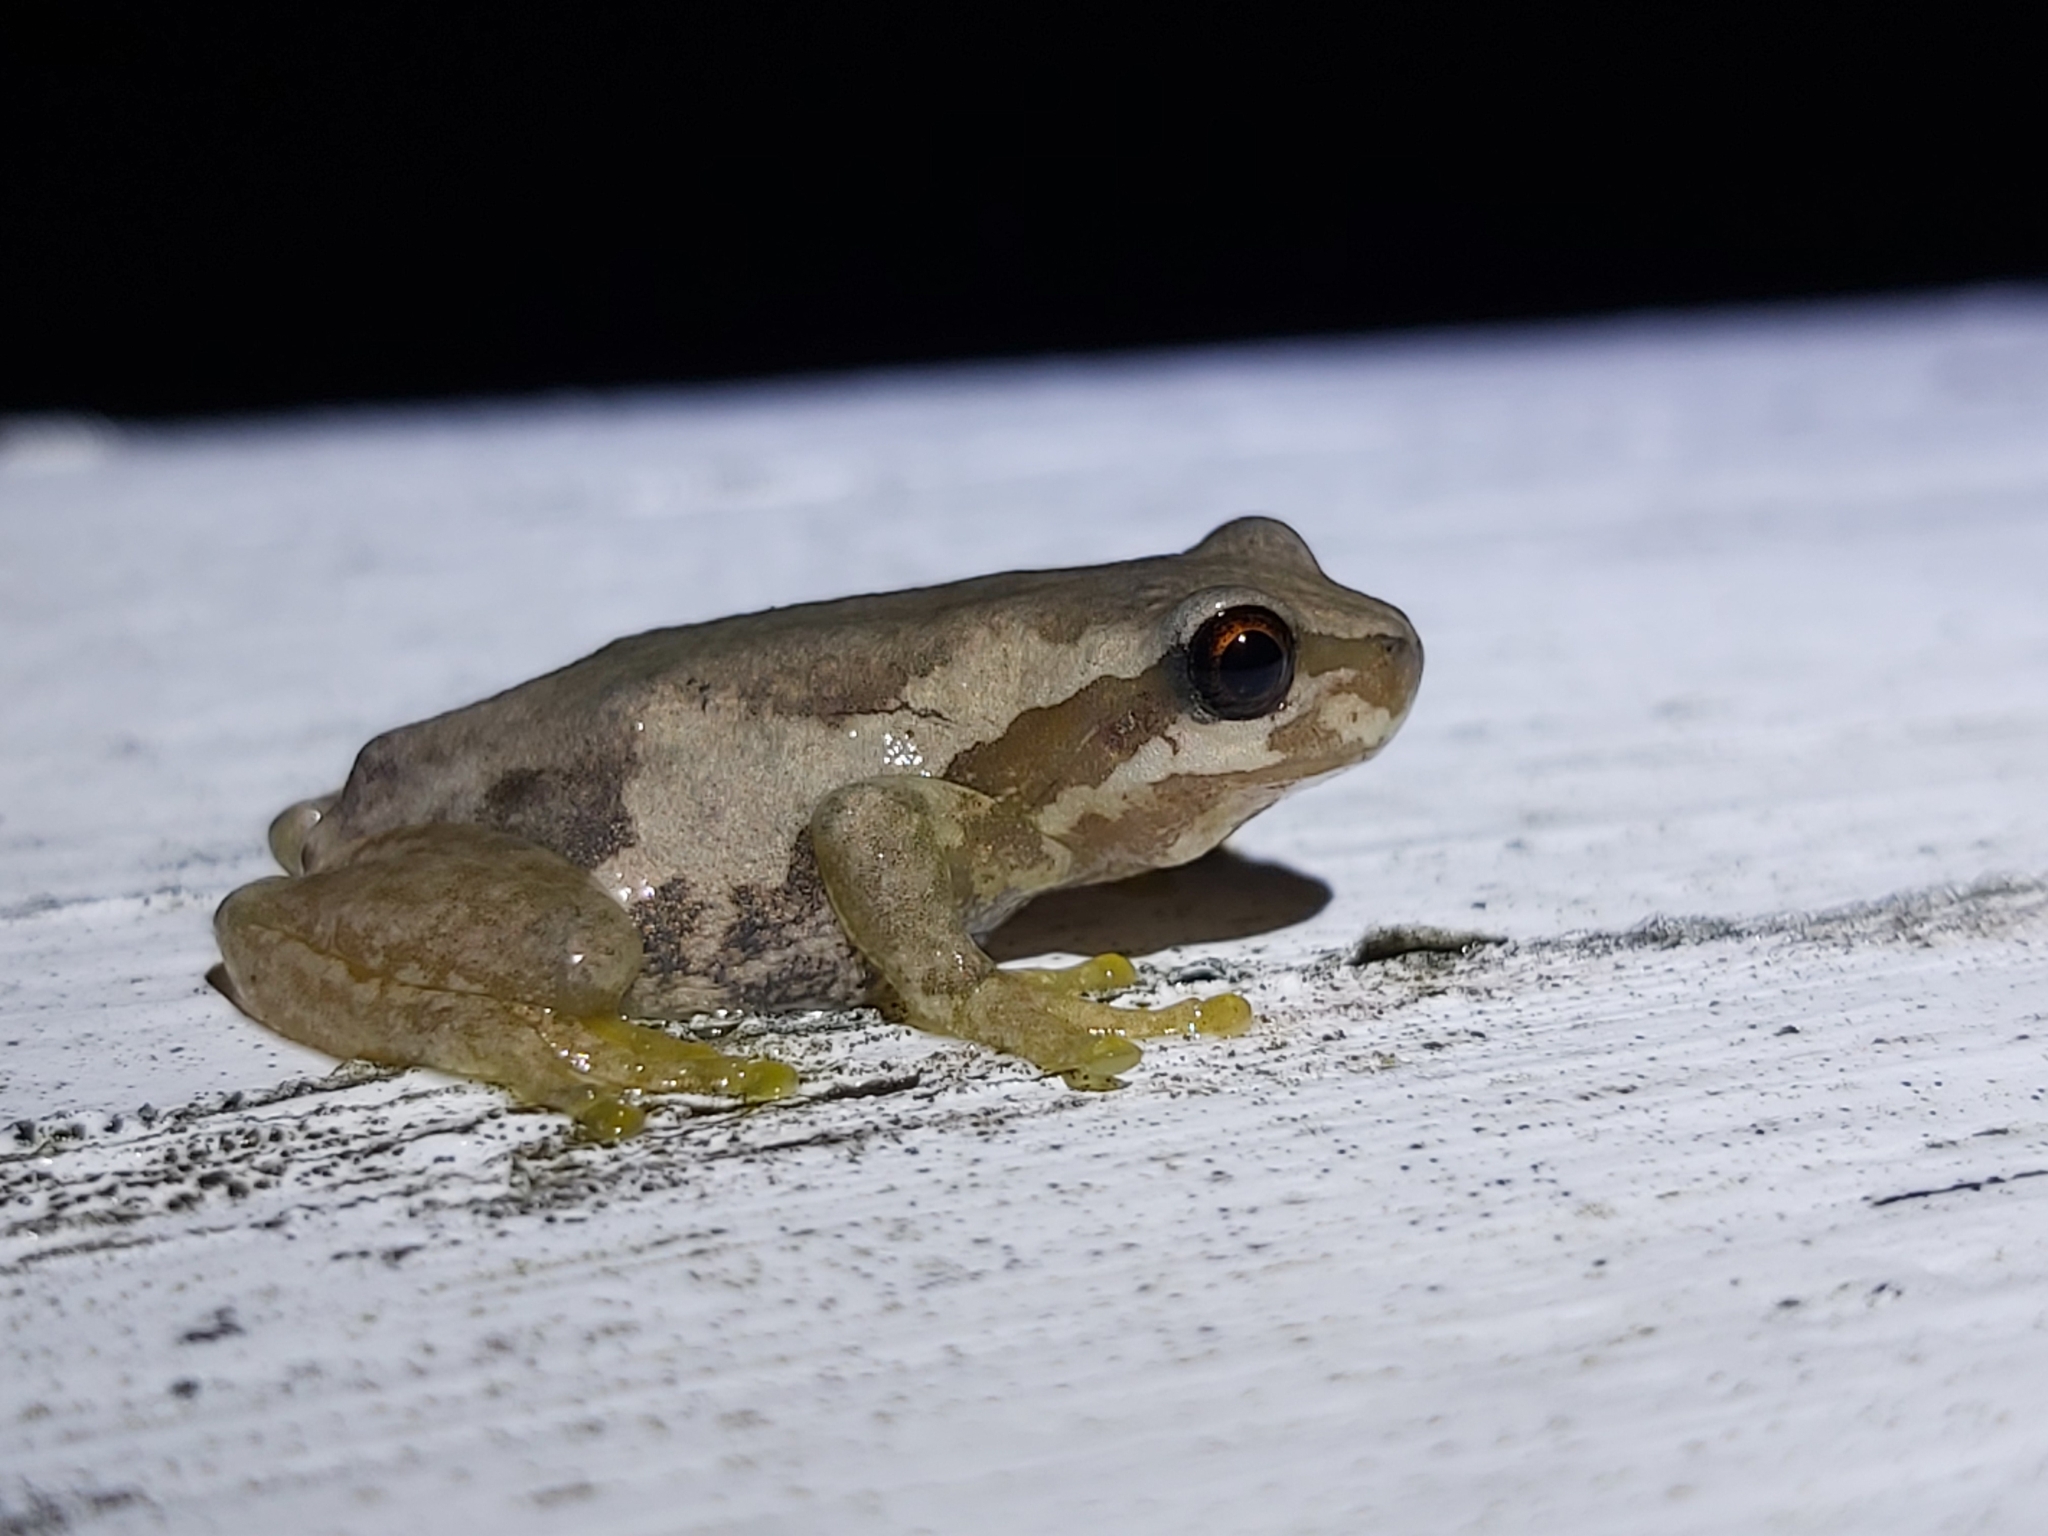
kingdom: Animalia
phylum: Chordata
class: Amphibia
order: Anura
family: Pelodryadidae
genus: Litoria
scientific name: Litoria quiritatus
